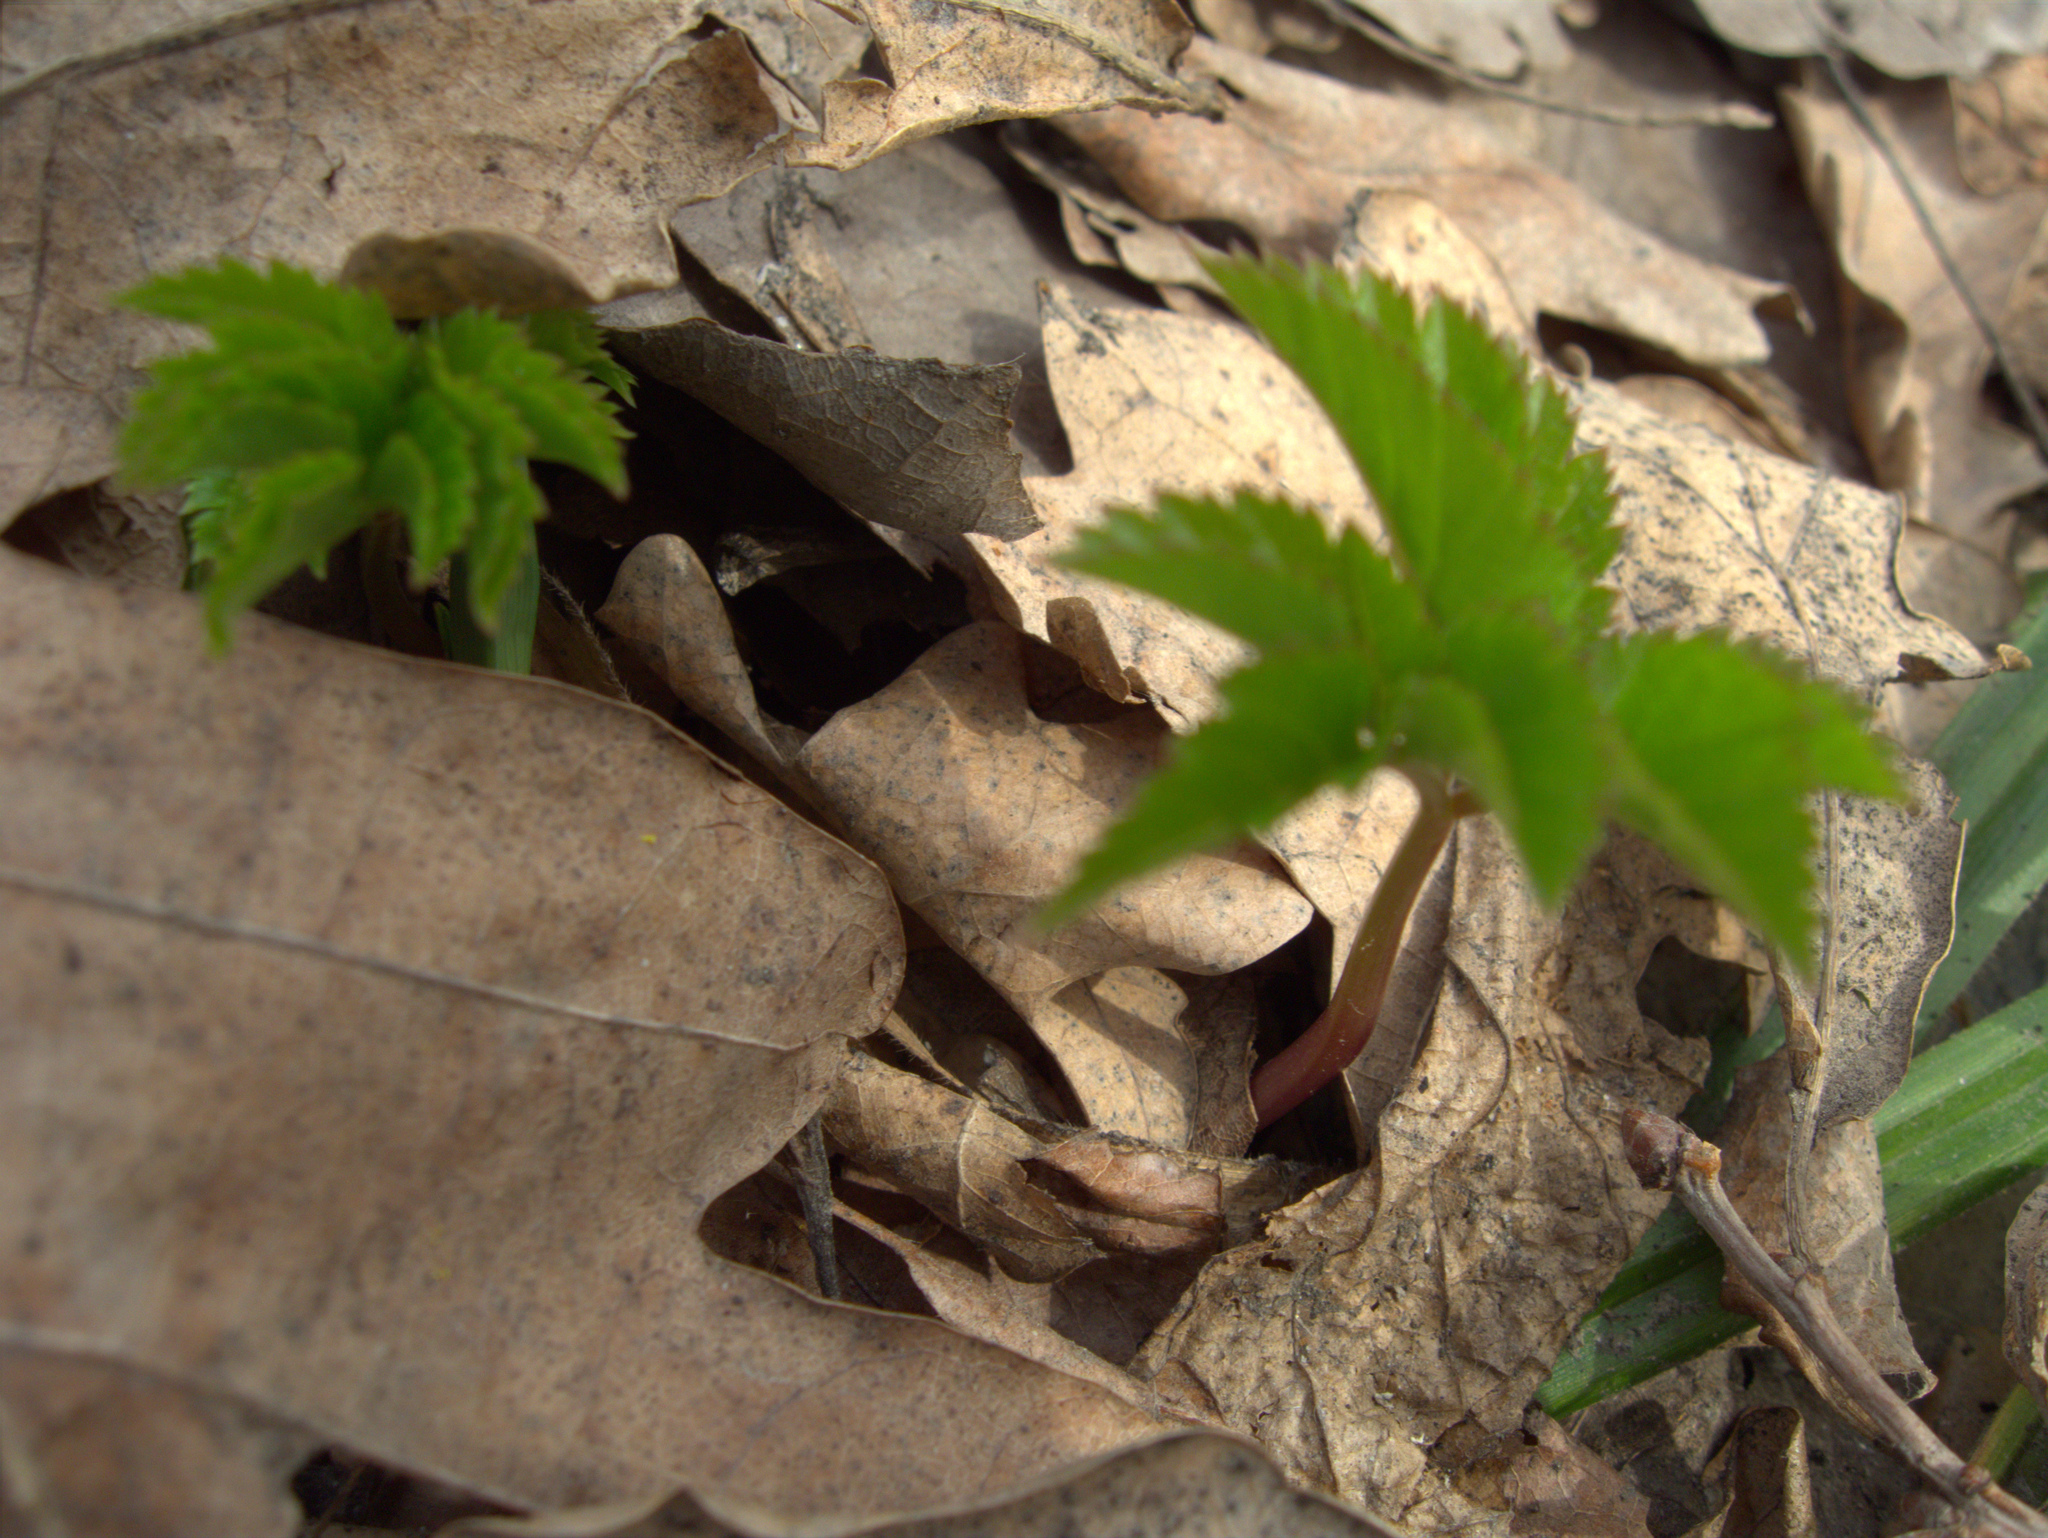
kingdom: Plantae
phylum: Tracheophyta
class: Magnoliopsida
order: Apiales
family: Apiaceae
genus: Aegopodium
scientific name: Aegopodium podagraria
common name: Ground-elder
